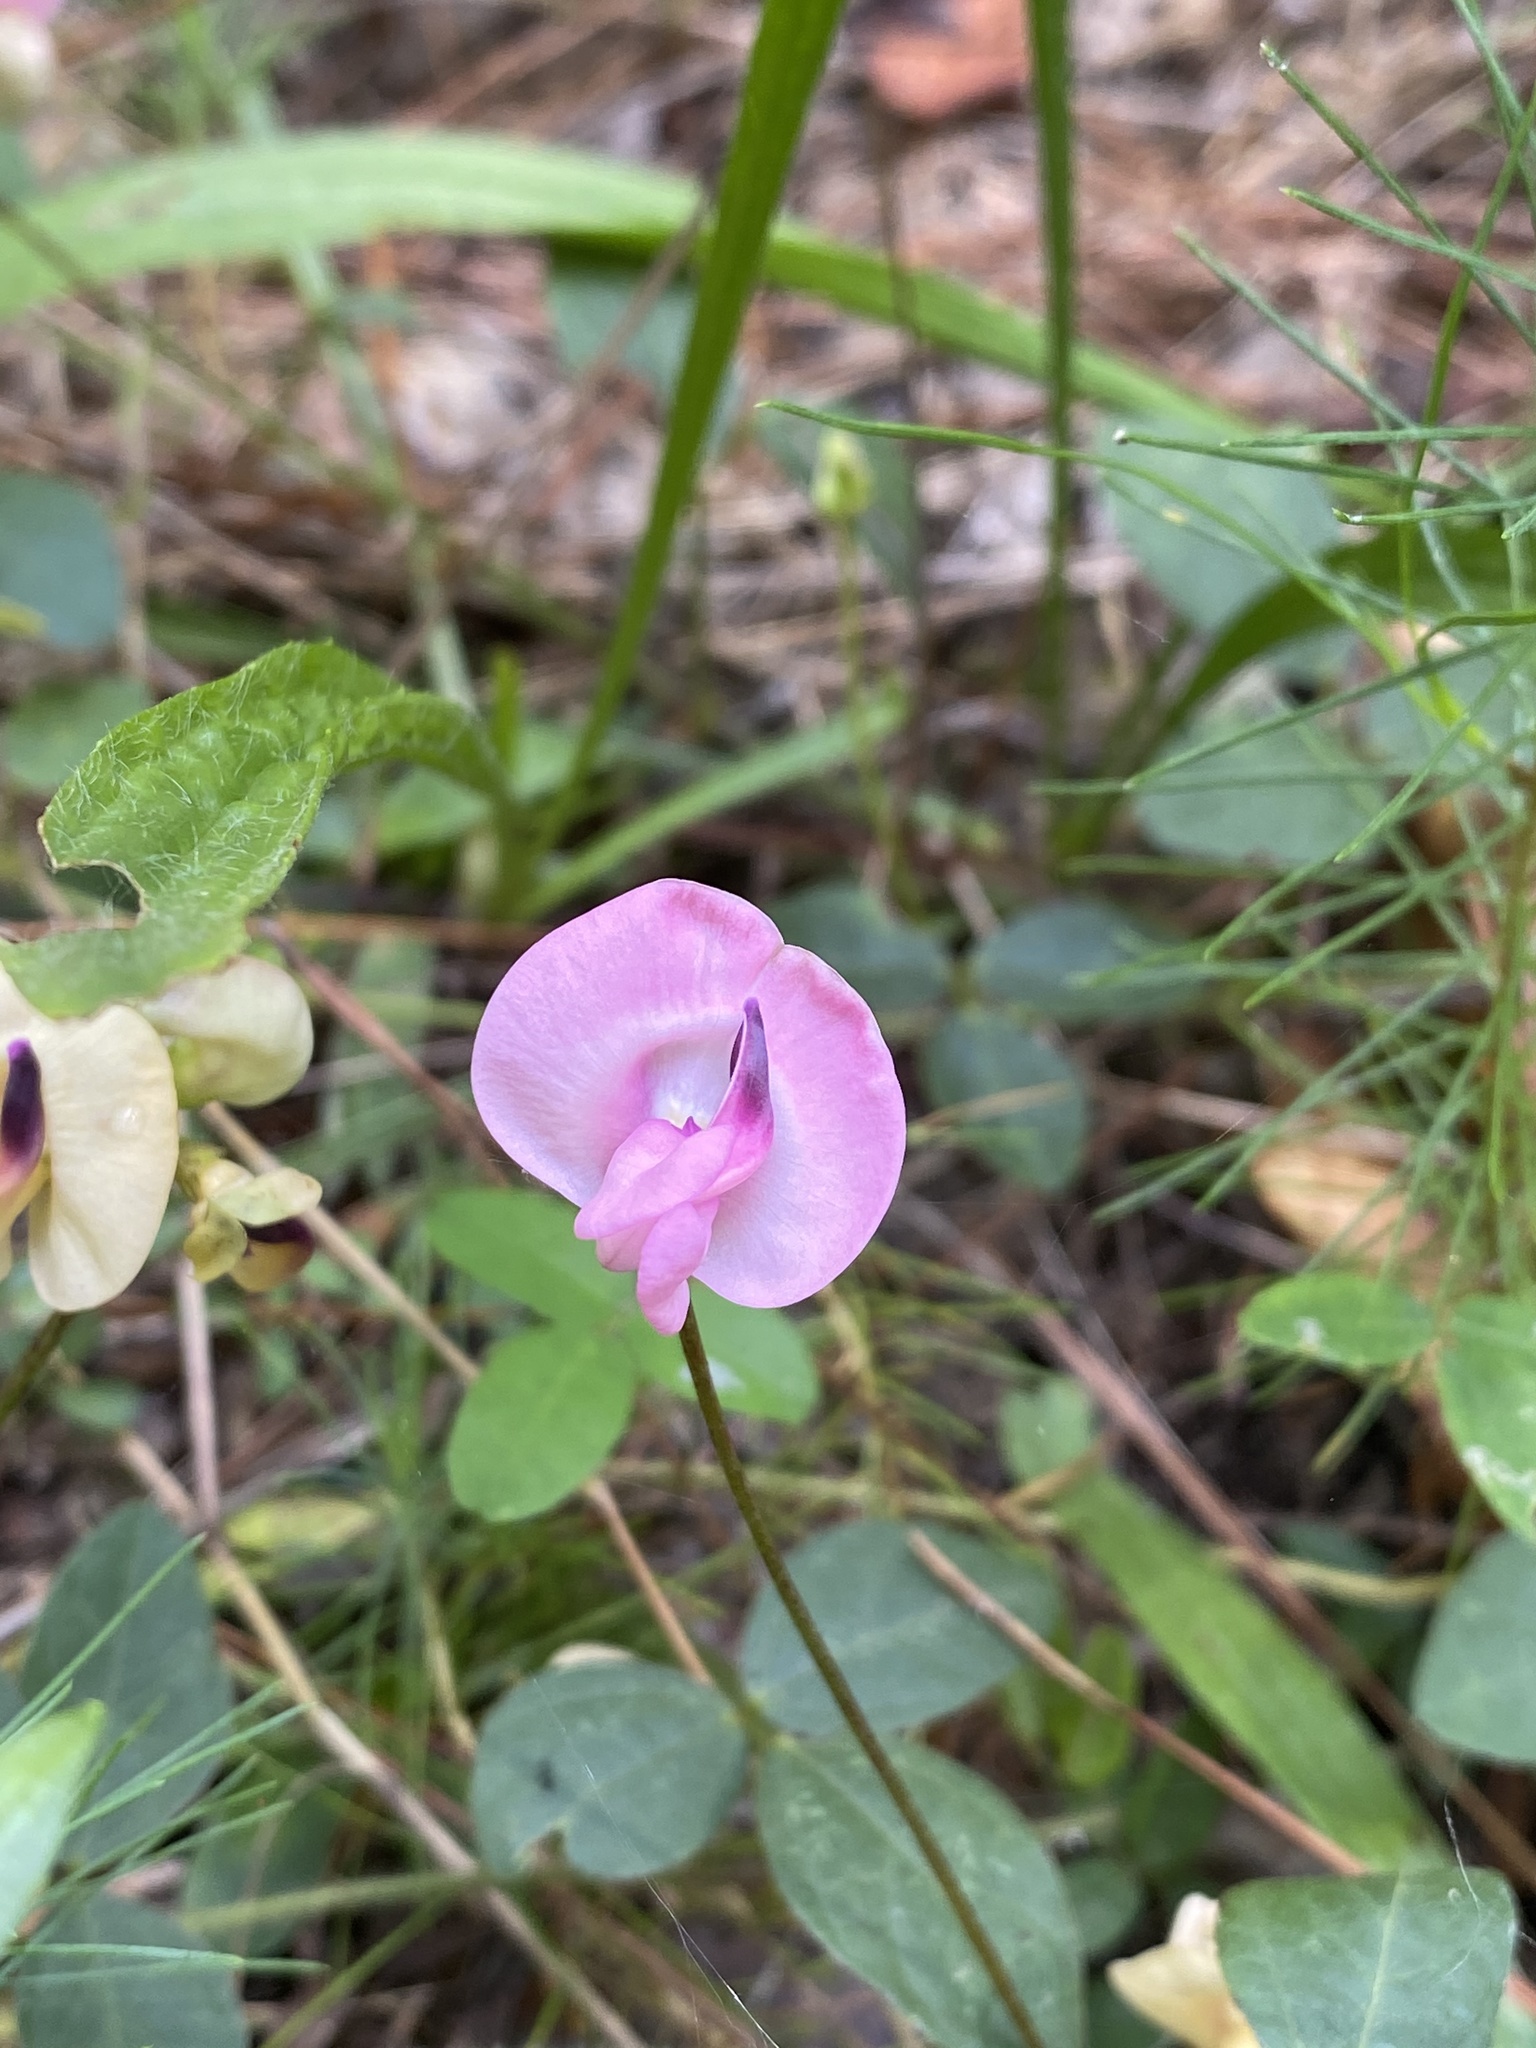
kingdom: Plantae
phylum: Tracheophyta
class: Magnoliopsida
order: Fabales
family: Fabaceae
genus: Strophostyles
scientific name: Strophostyles umbellata
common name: Perennial wild bean
